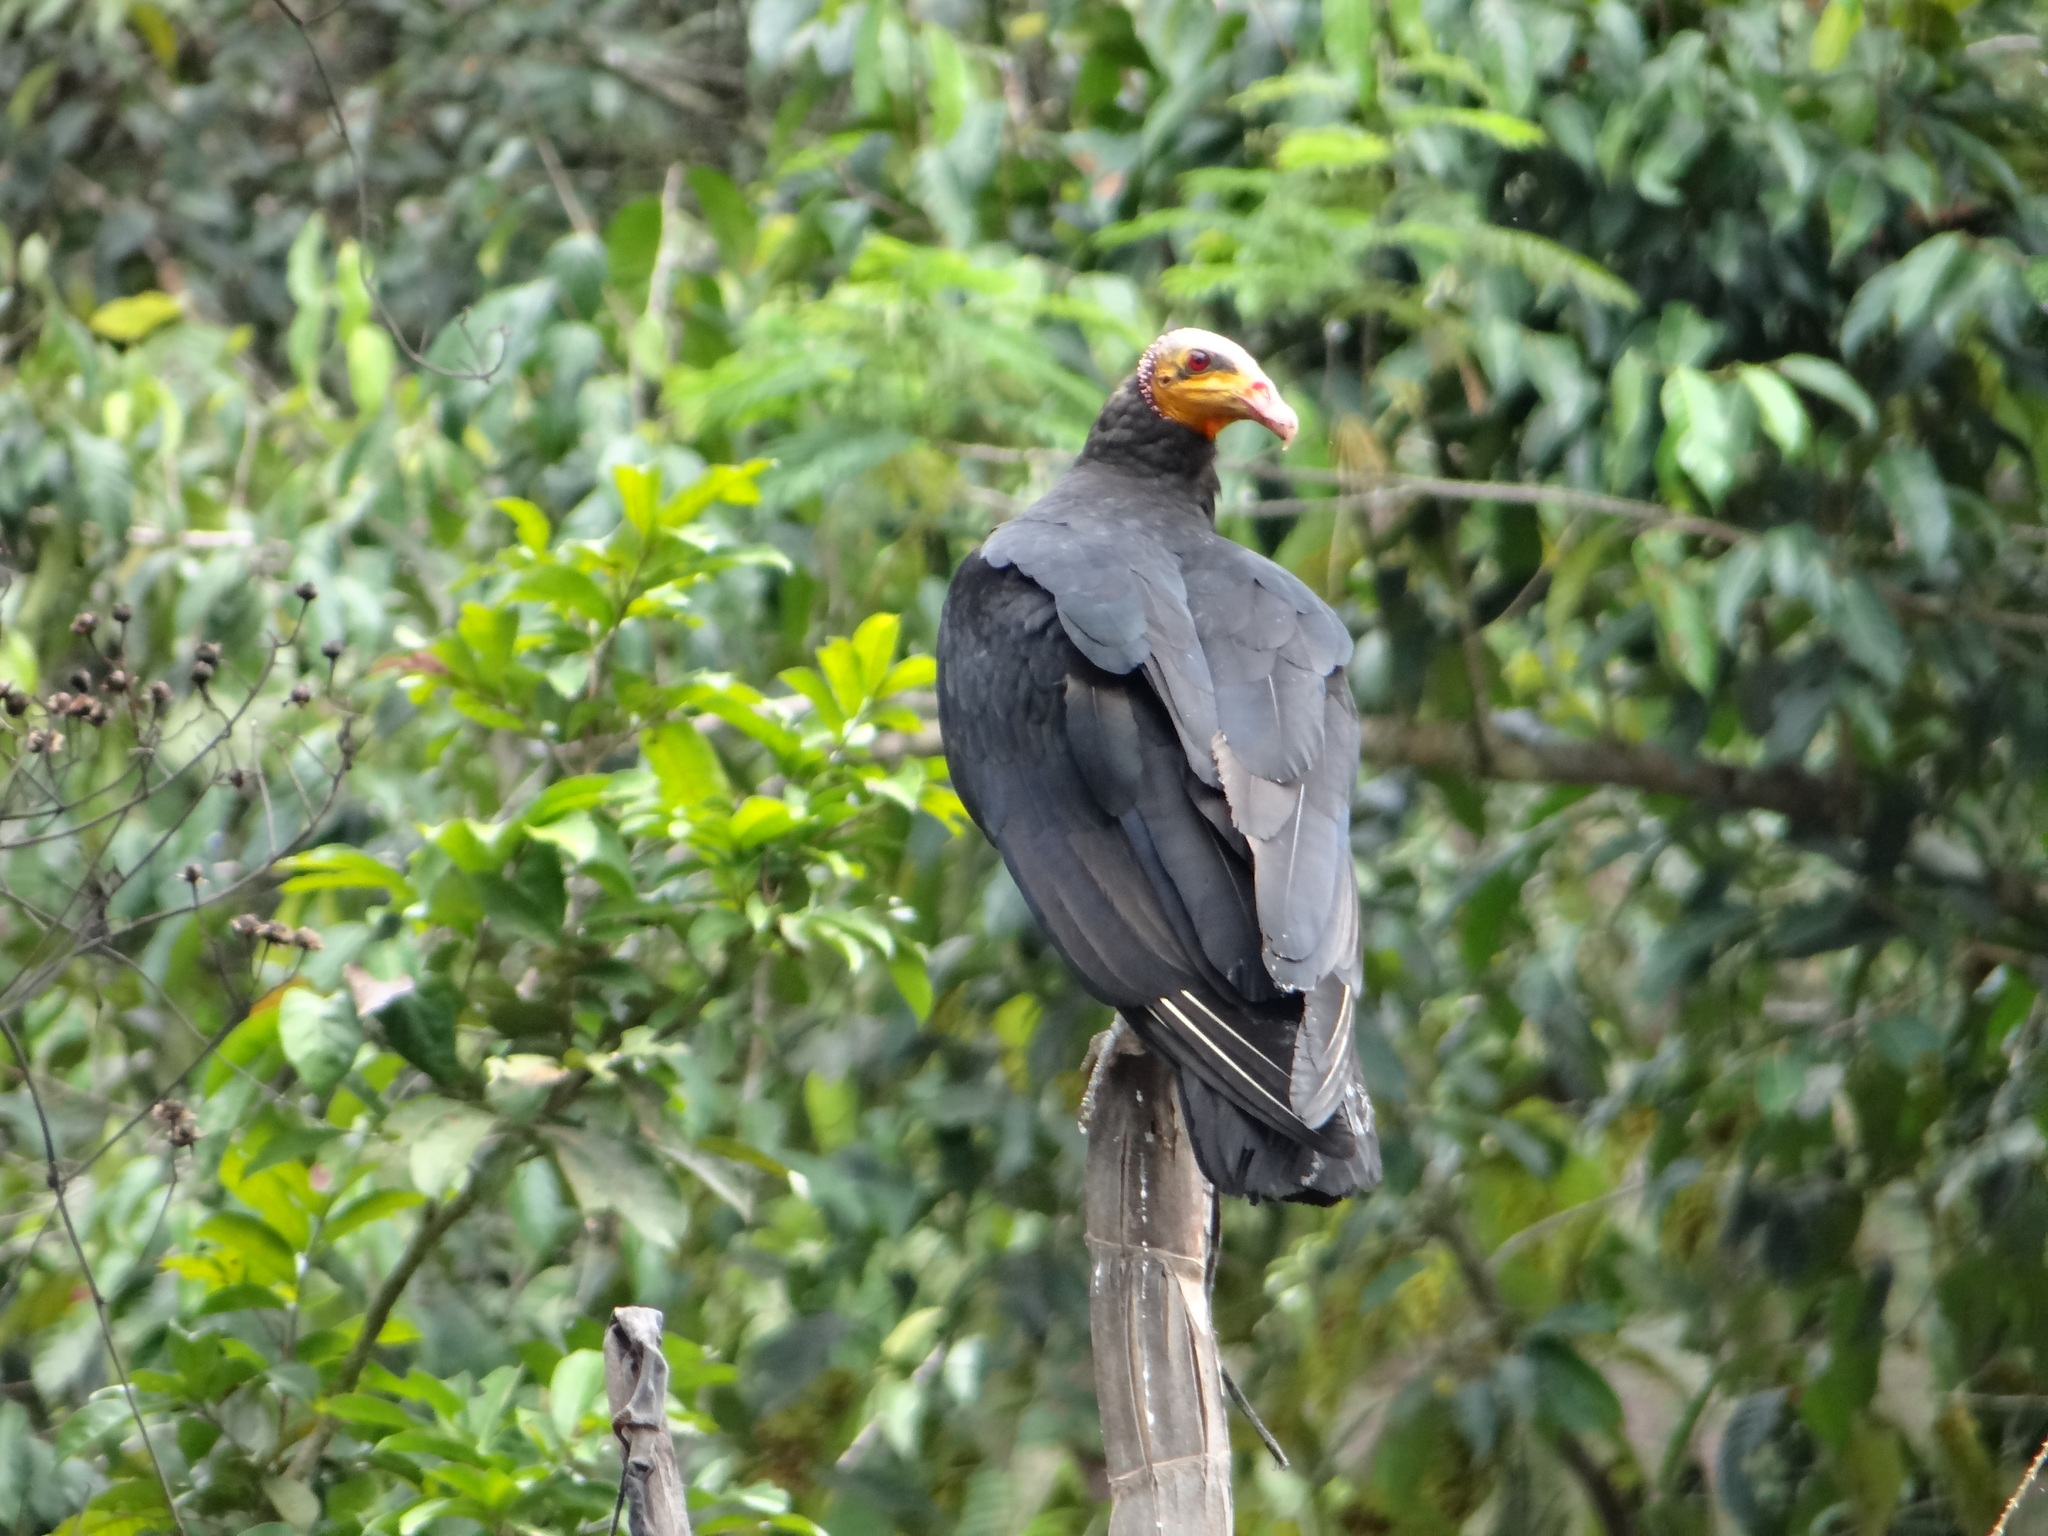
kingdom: Animalia
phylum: Chordata
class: Aves
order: Accipitriformes
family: Cathartidae
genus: Cathartes
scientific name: Cathartes burrovianus
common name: Lesser yellow-headed vulture
